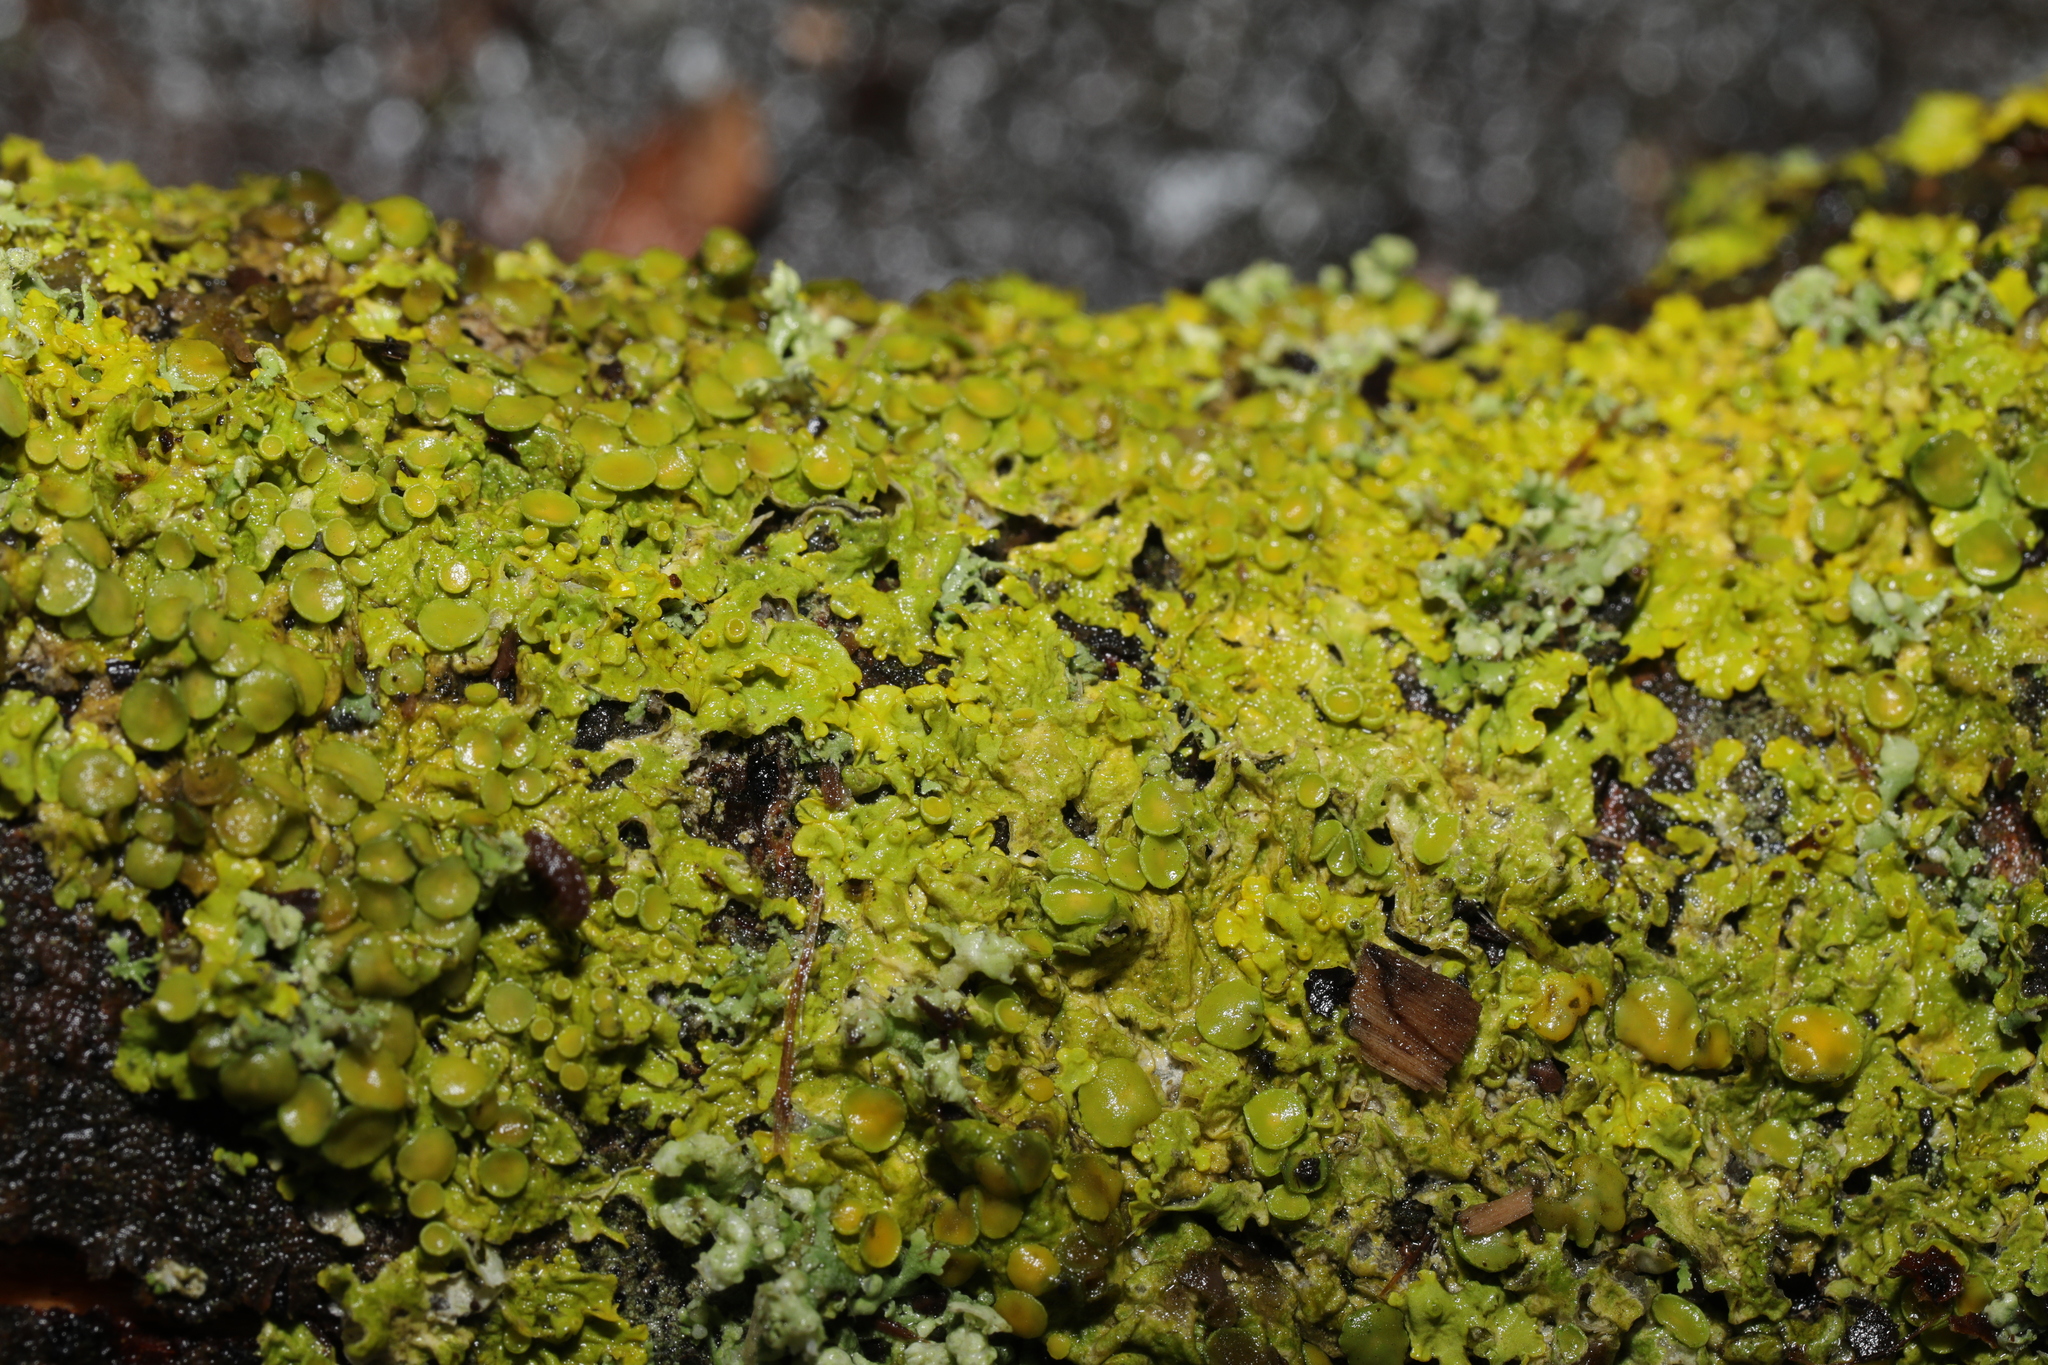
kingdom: Fungi
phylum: Ascomycota
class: Lecanoromycetes
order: Teloschistales
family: Teloschistaceae
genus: Xanthoria
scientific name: Xanthoria parietina
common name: Common orange lichen
